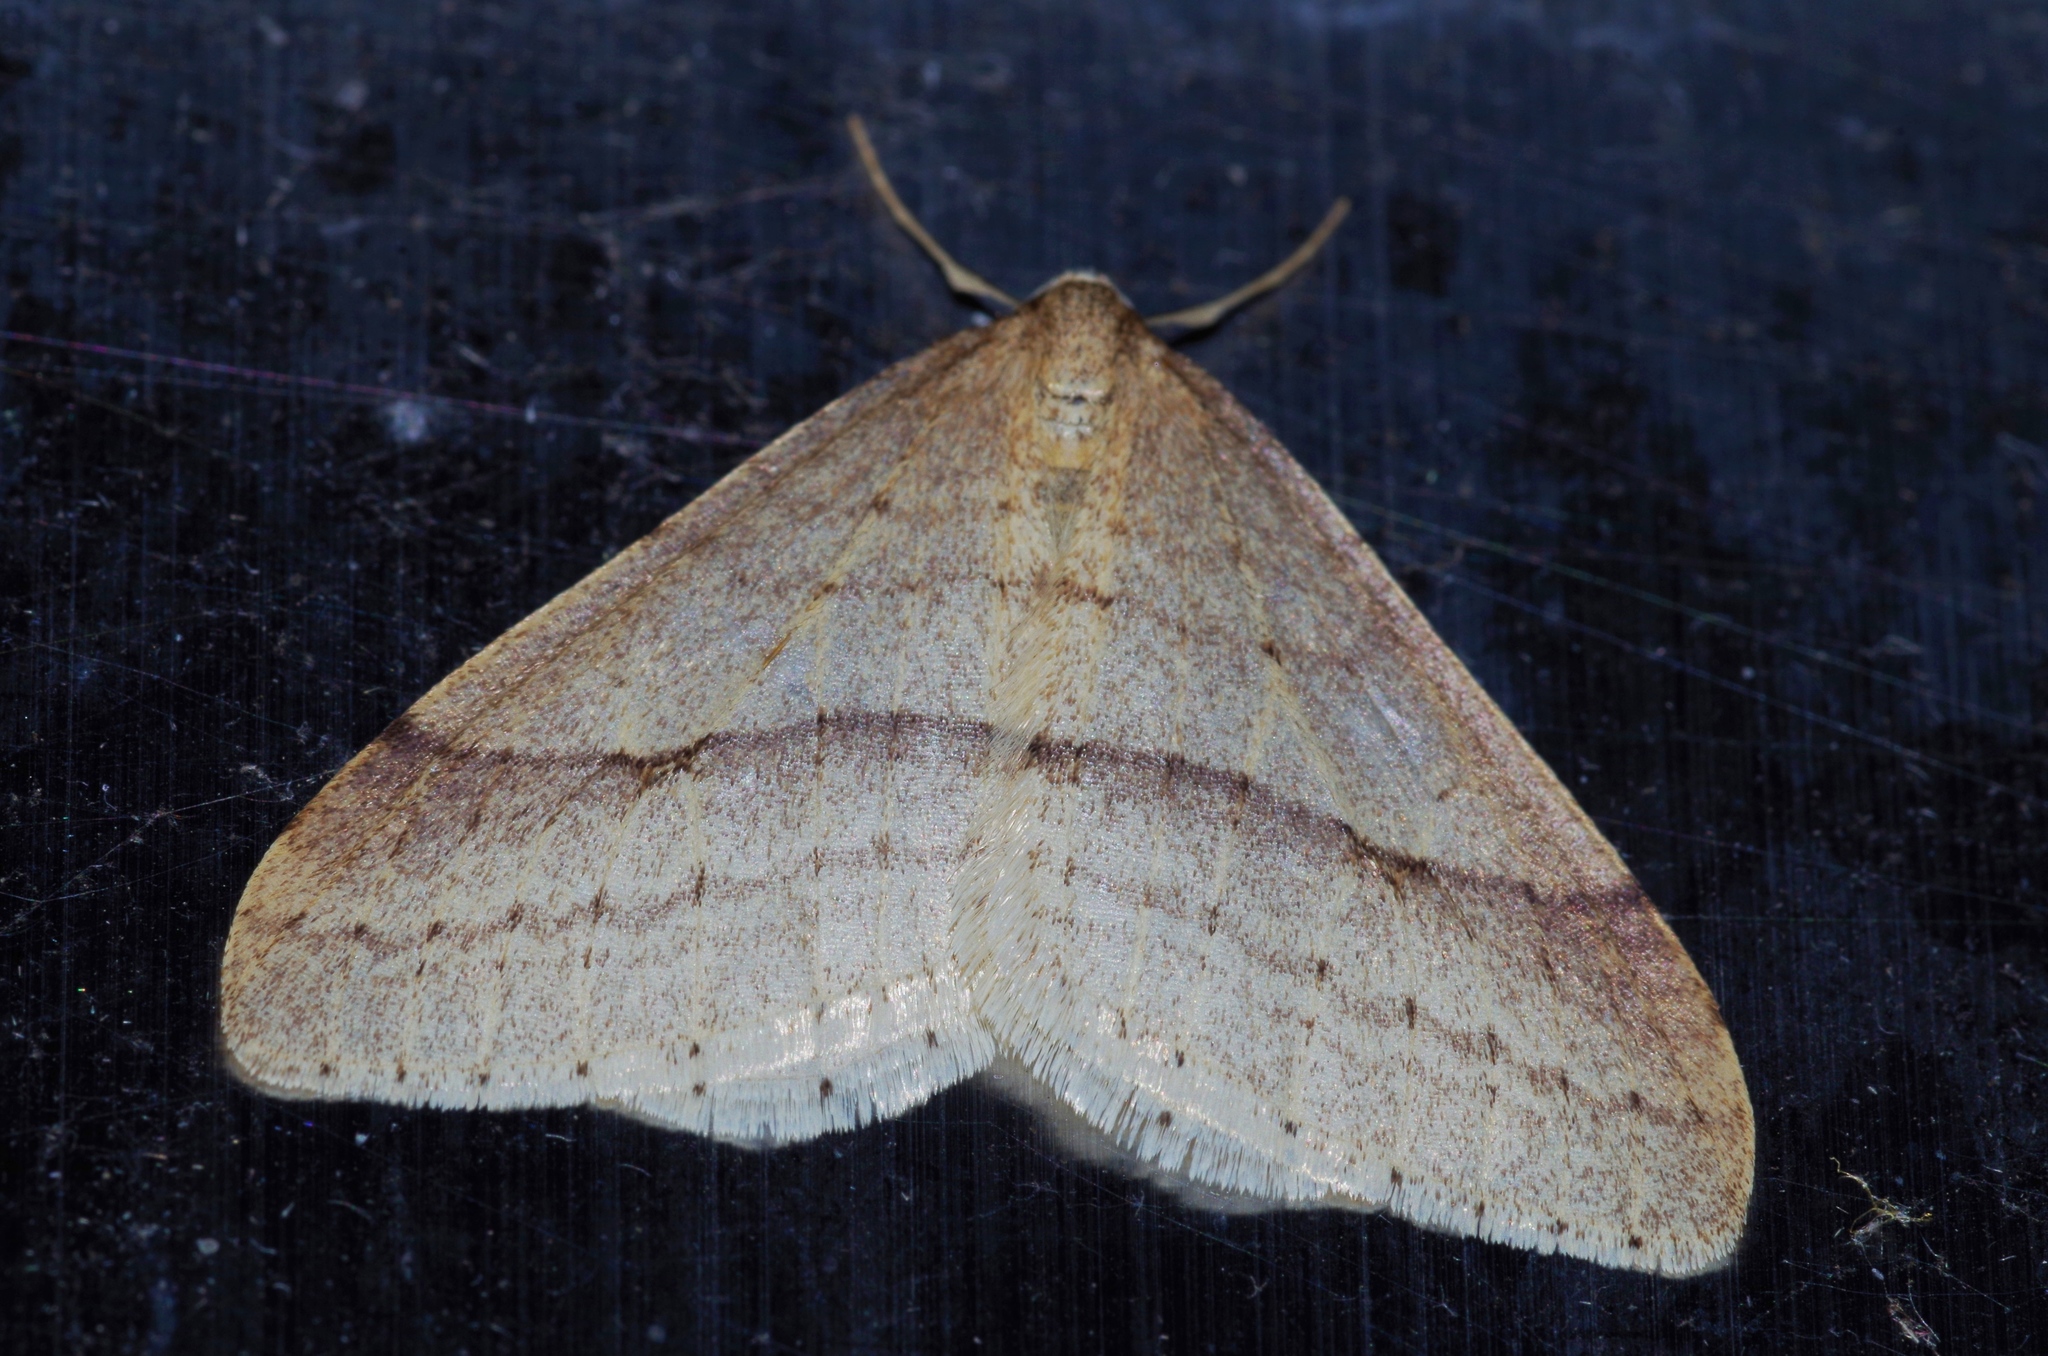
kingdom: Animalia
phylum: Arthropoda
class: Insecta
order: Lepidoptera
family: Geometridae
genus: Operophtera
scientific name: Operophtera rectipostmediana
